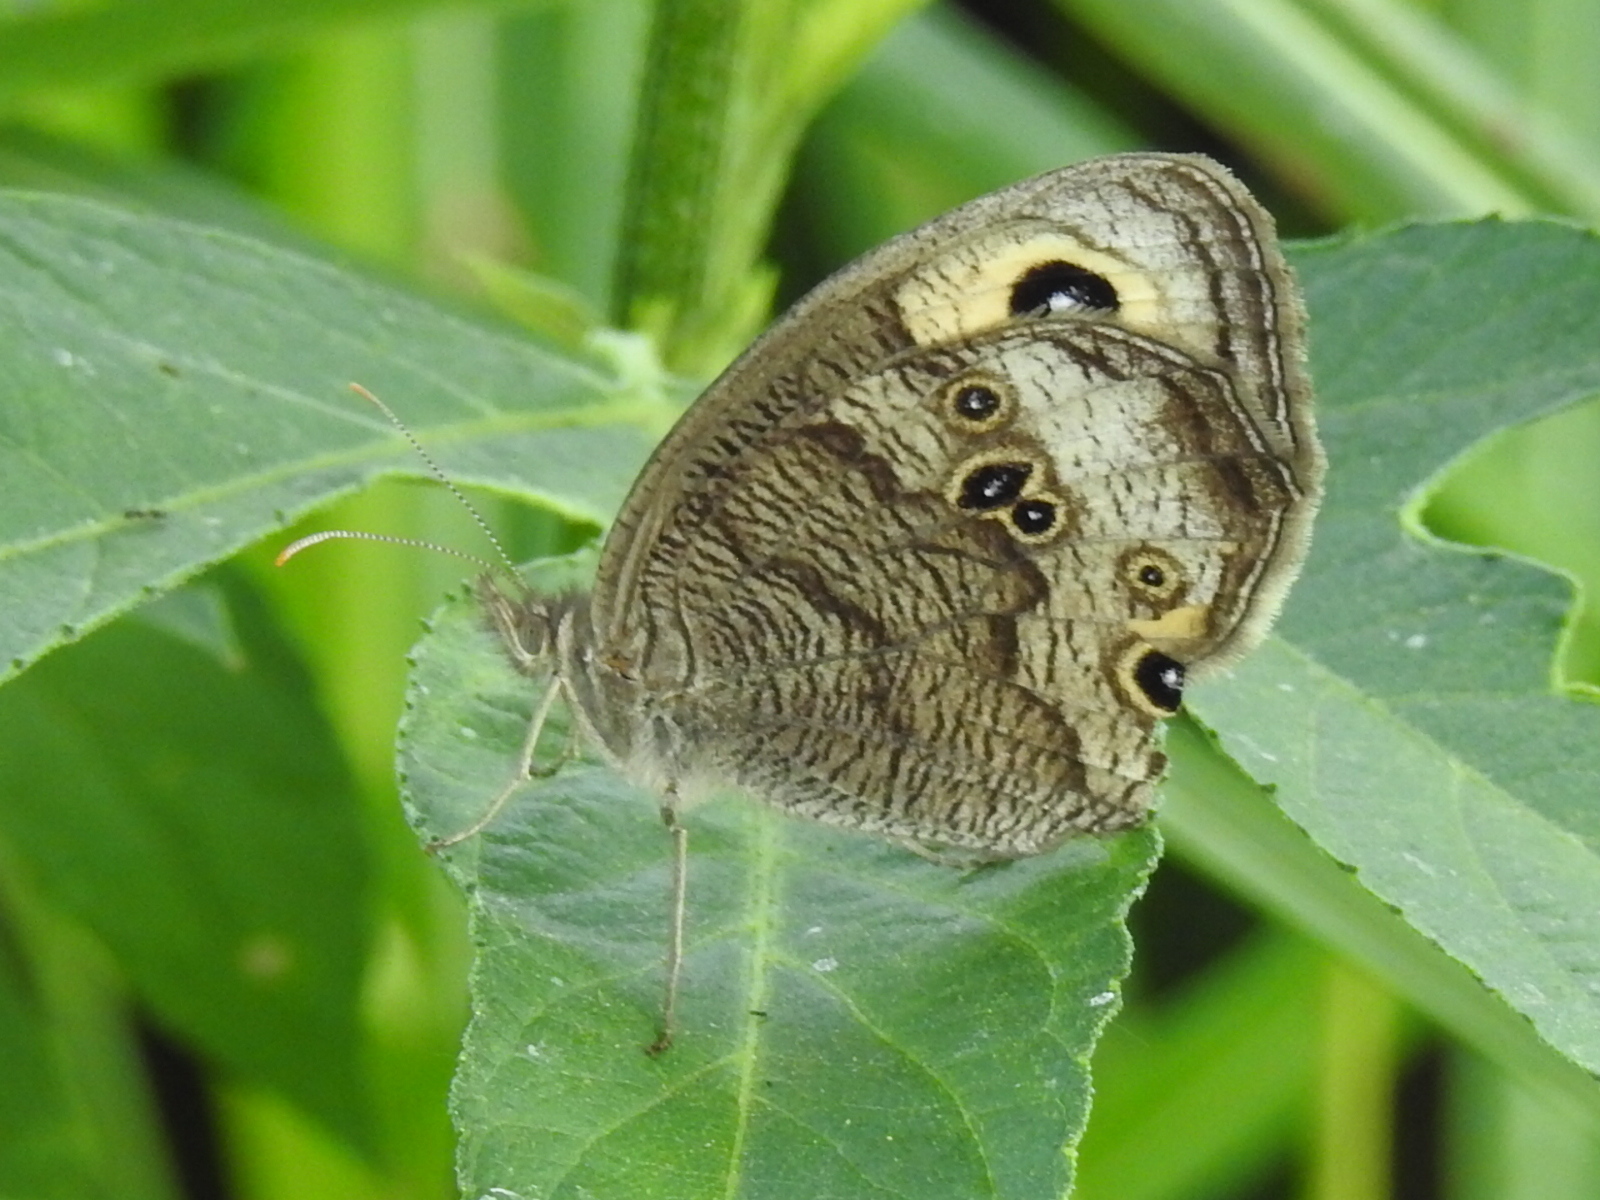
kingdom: Animalia
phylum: Arthropoda
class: Insecta
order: Lepidoptera
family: Nymphalidae
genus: Cercyonis
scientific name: Cercyonis pegala
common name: Common wood-nymph
